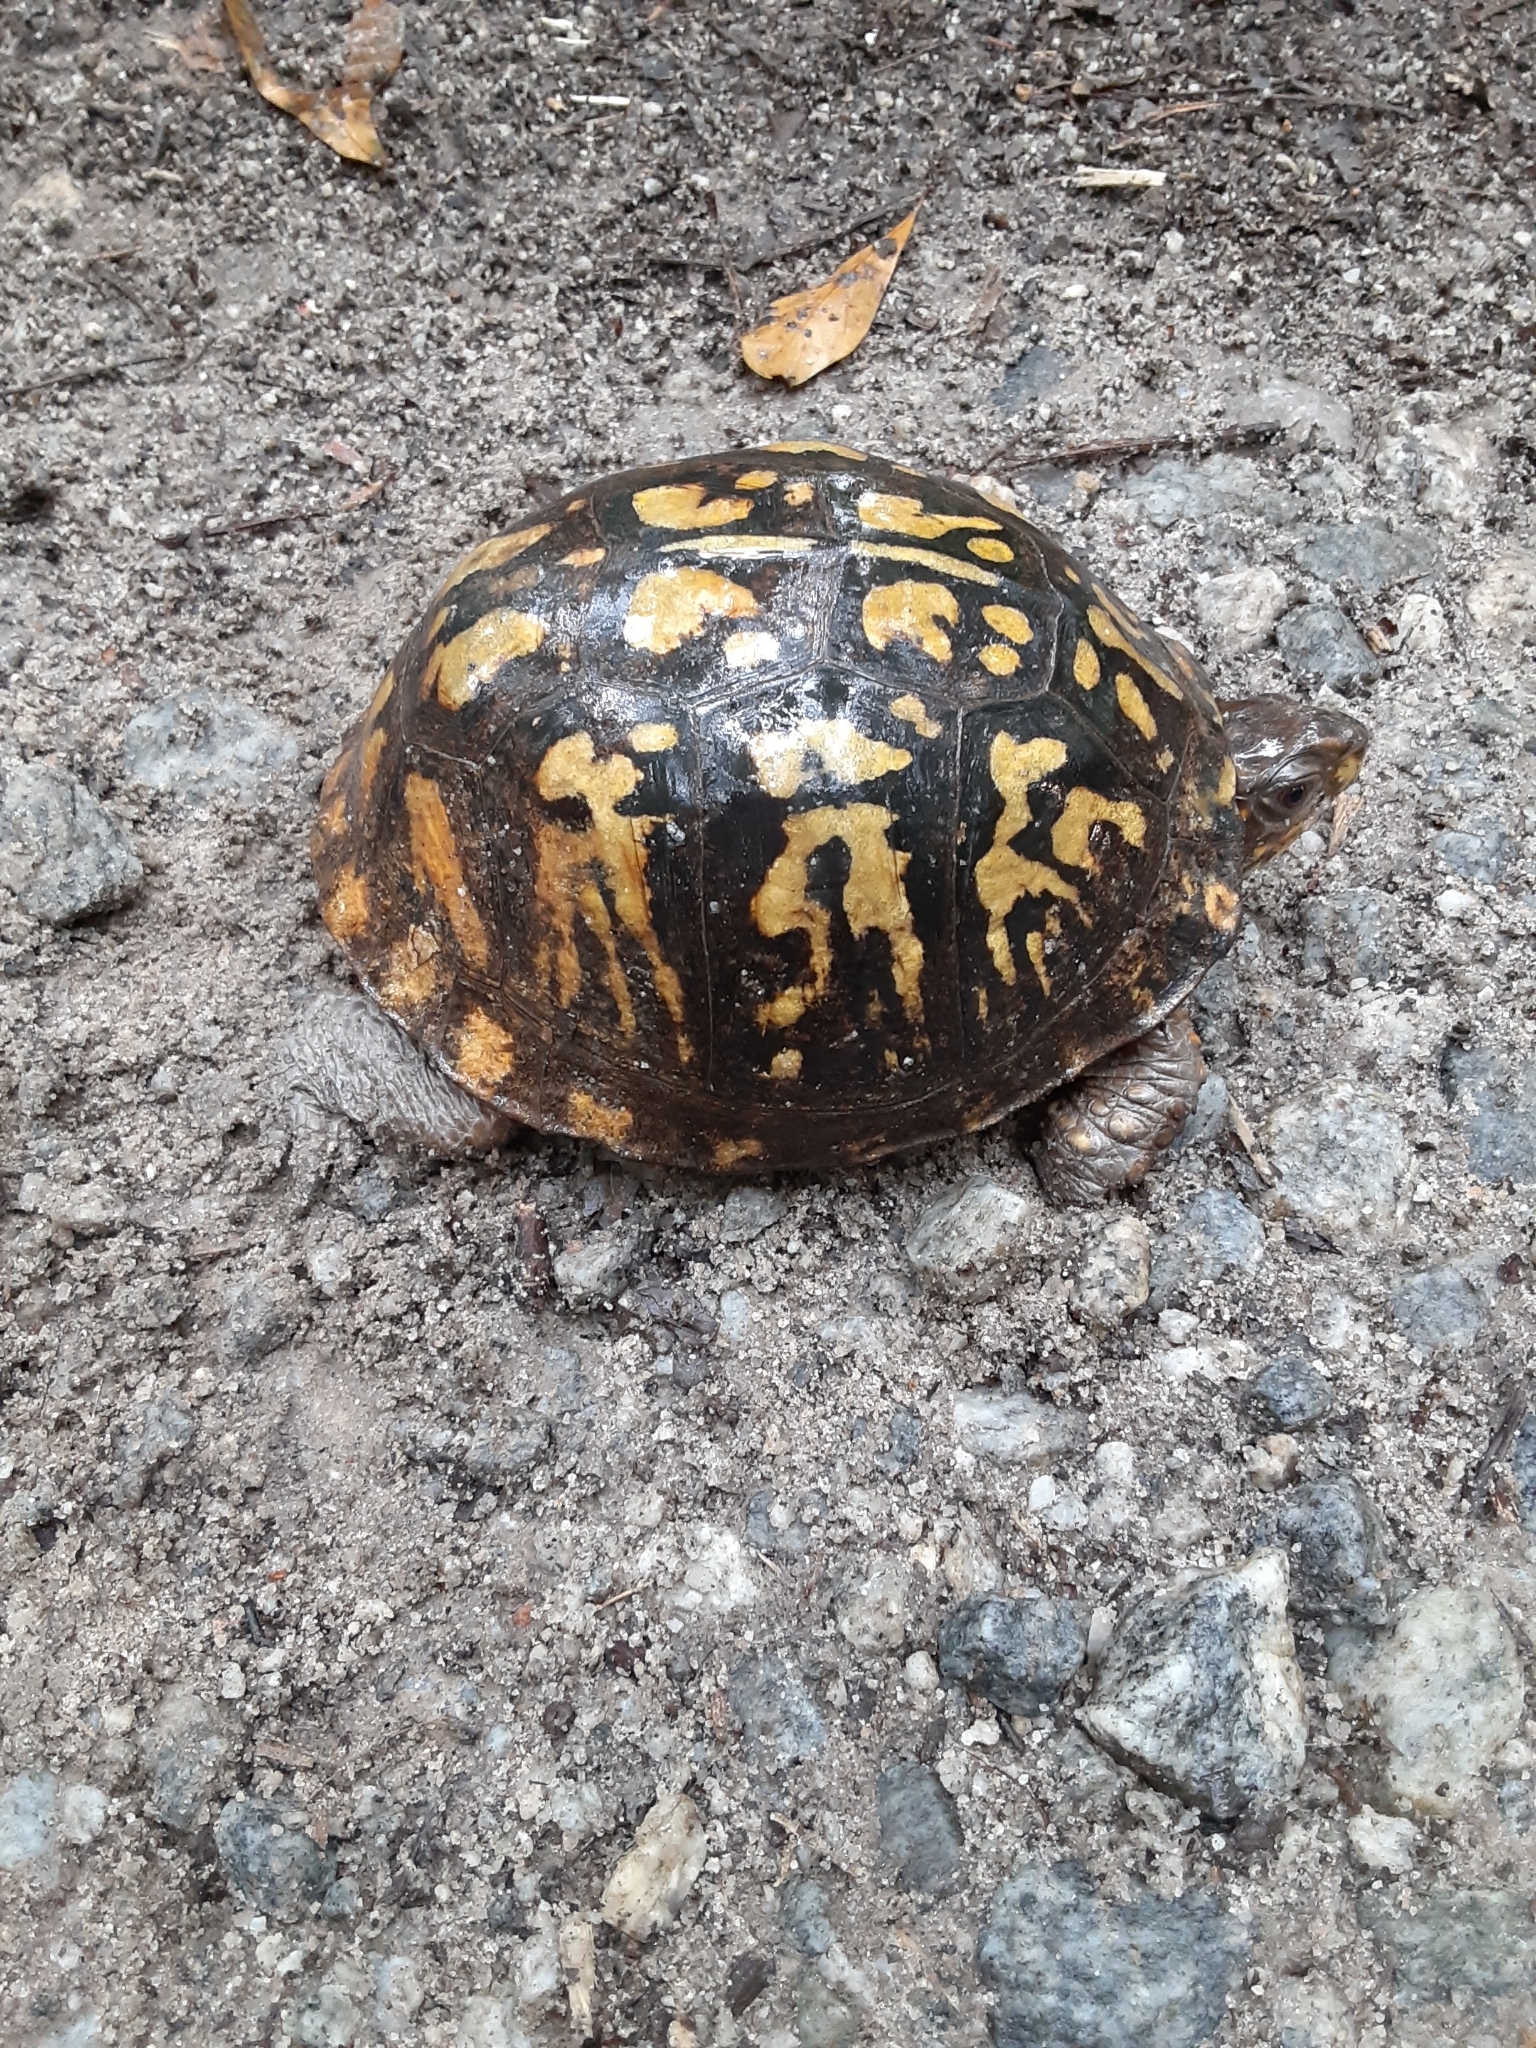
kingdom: Animalia
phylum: Chordata
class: Testudines
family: Emydidae
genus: Terrapene
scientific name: Terrapene carolina
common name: Common box turtle
